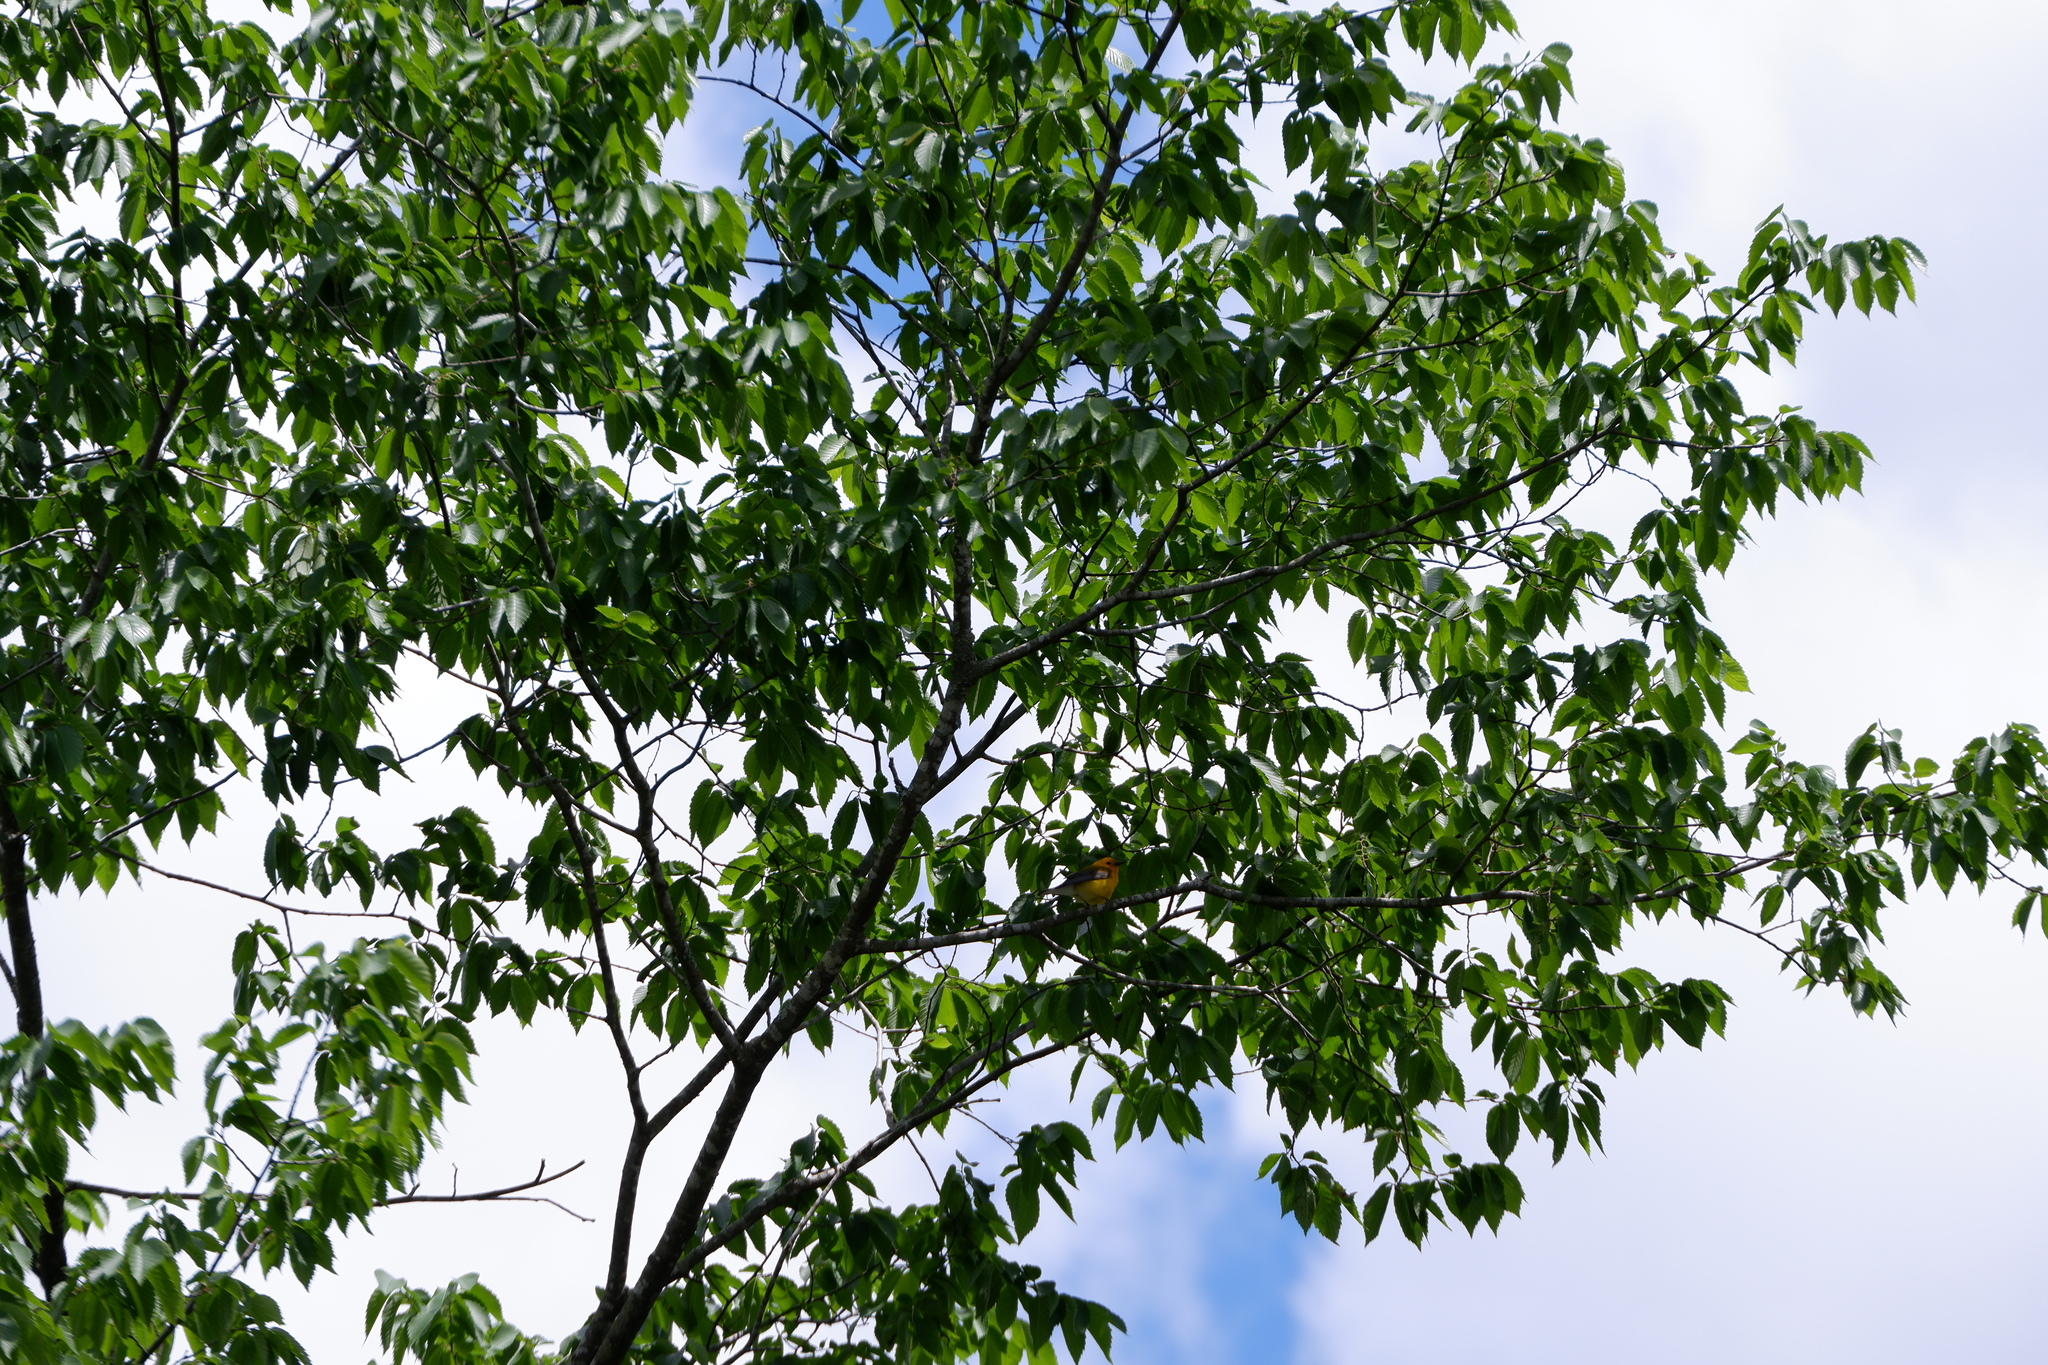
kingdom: Animalia
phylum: Chordata
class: Aves
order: Passeriformes
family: Parulidae
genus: Protonotaria
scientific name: Protonotaria citrea
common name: Prothonotary warbler
